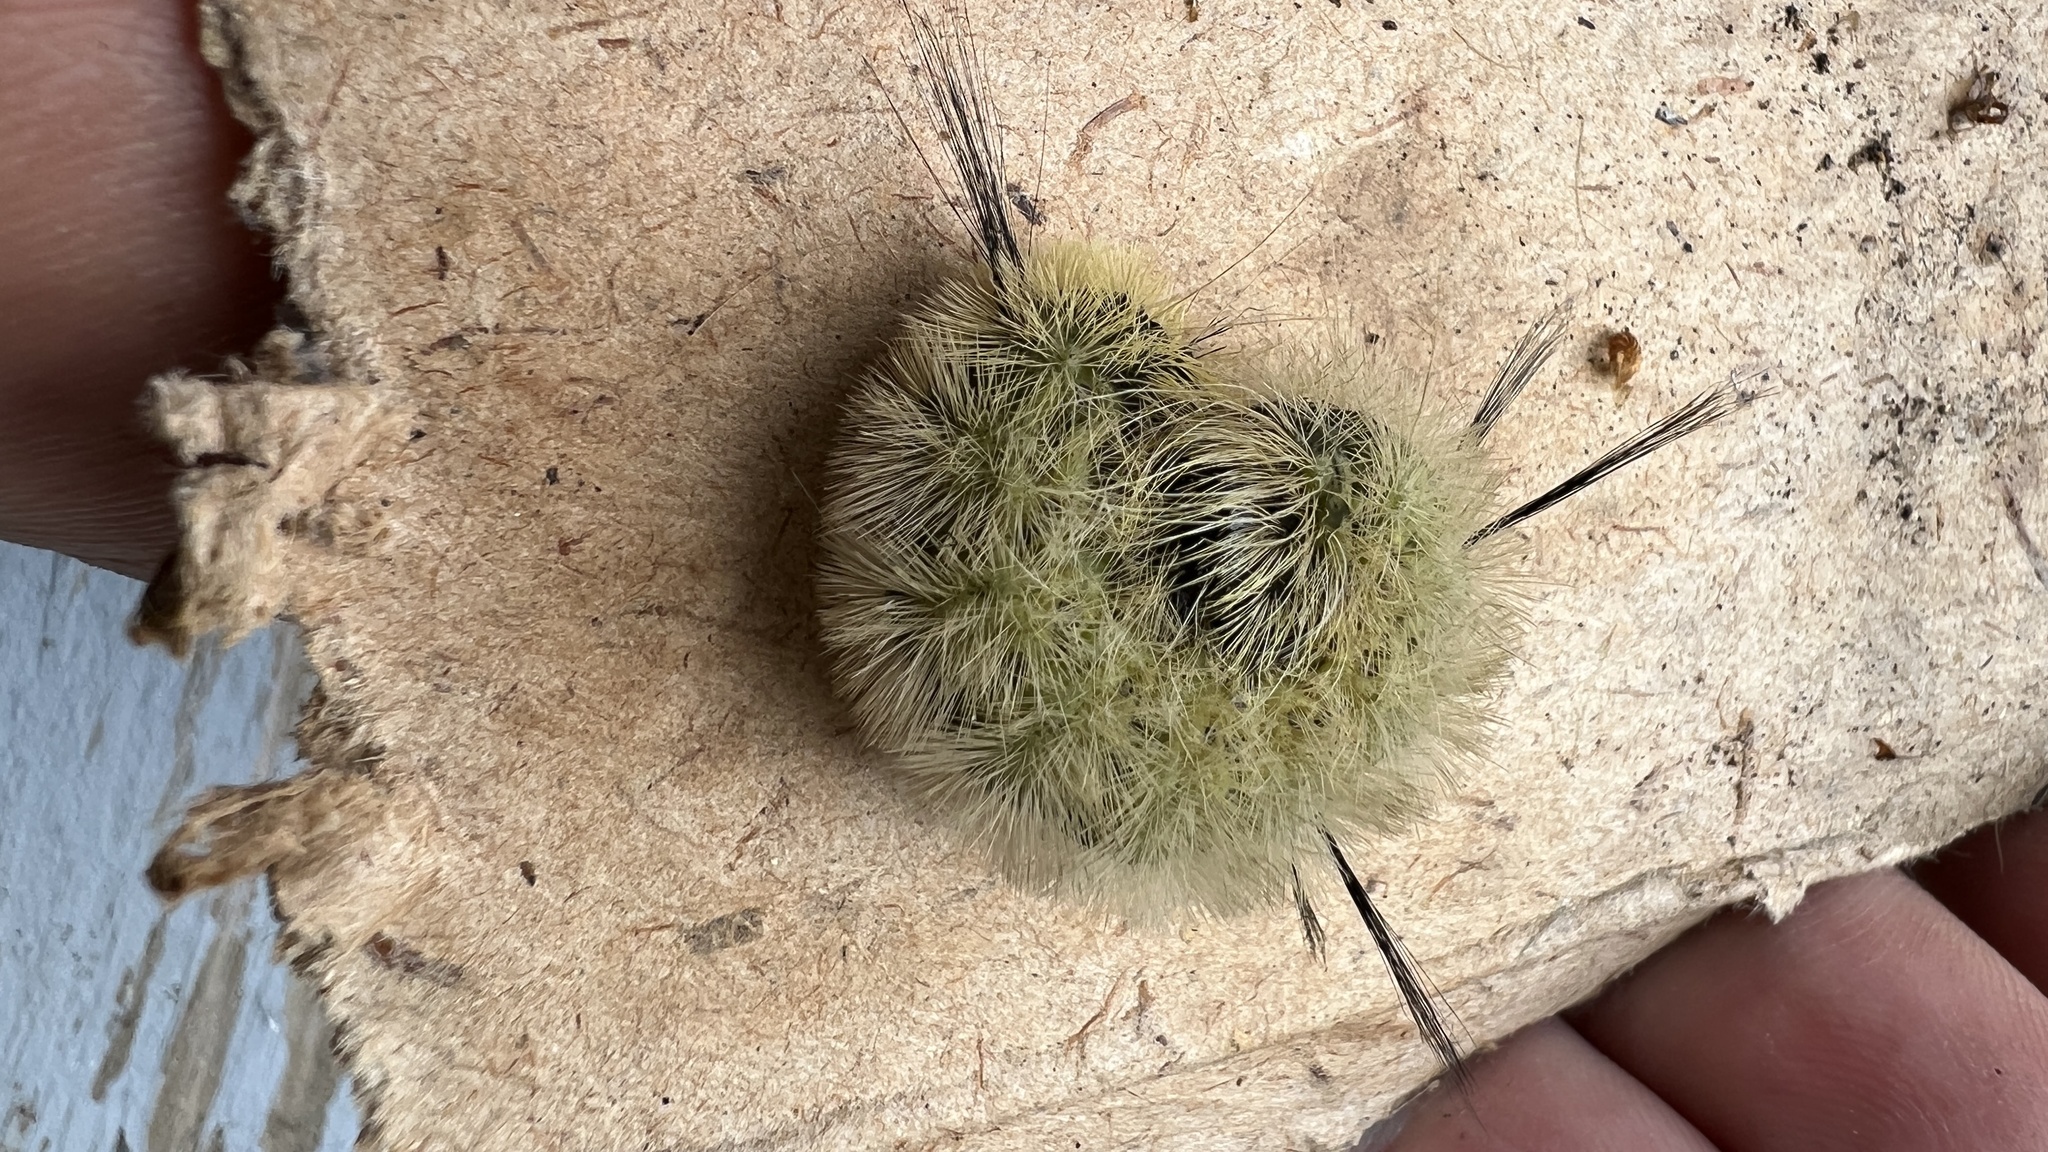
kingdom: Animalia
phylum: Arthropoda
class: Insecta
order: Lepidoptera
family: Noctuidae
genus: Acronicta
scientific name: Acronicta americana
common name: American dagger
